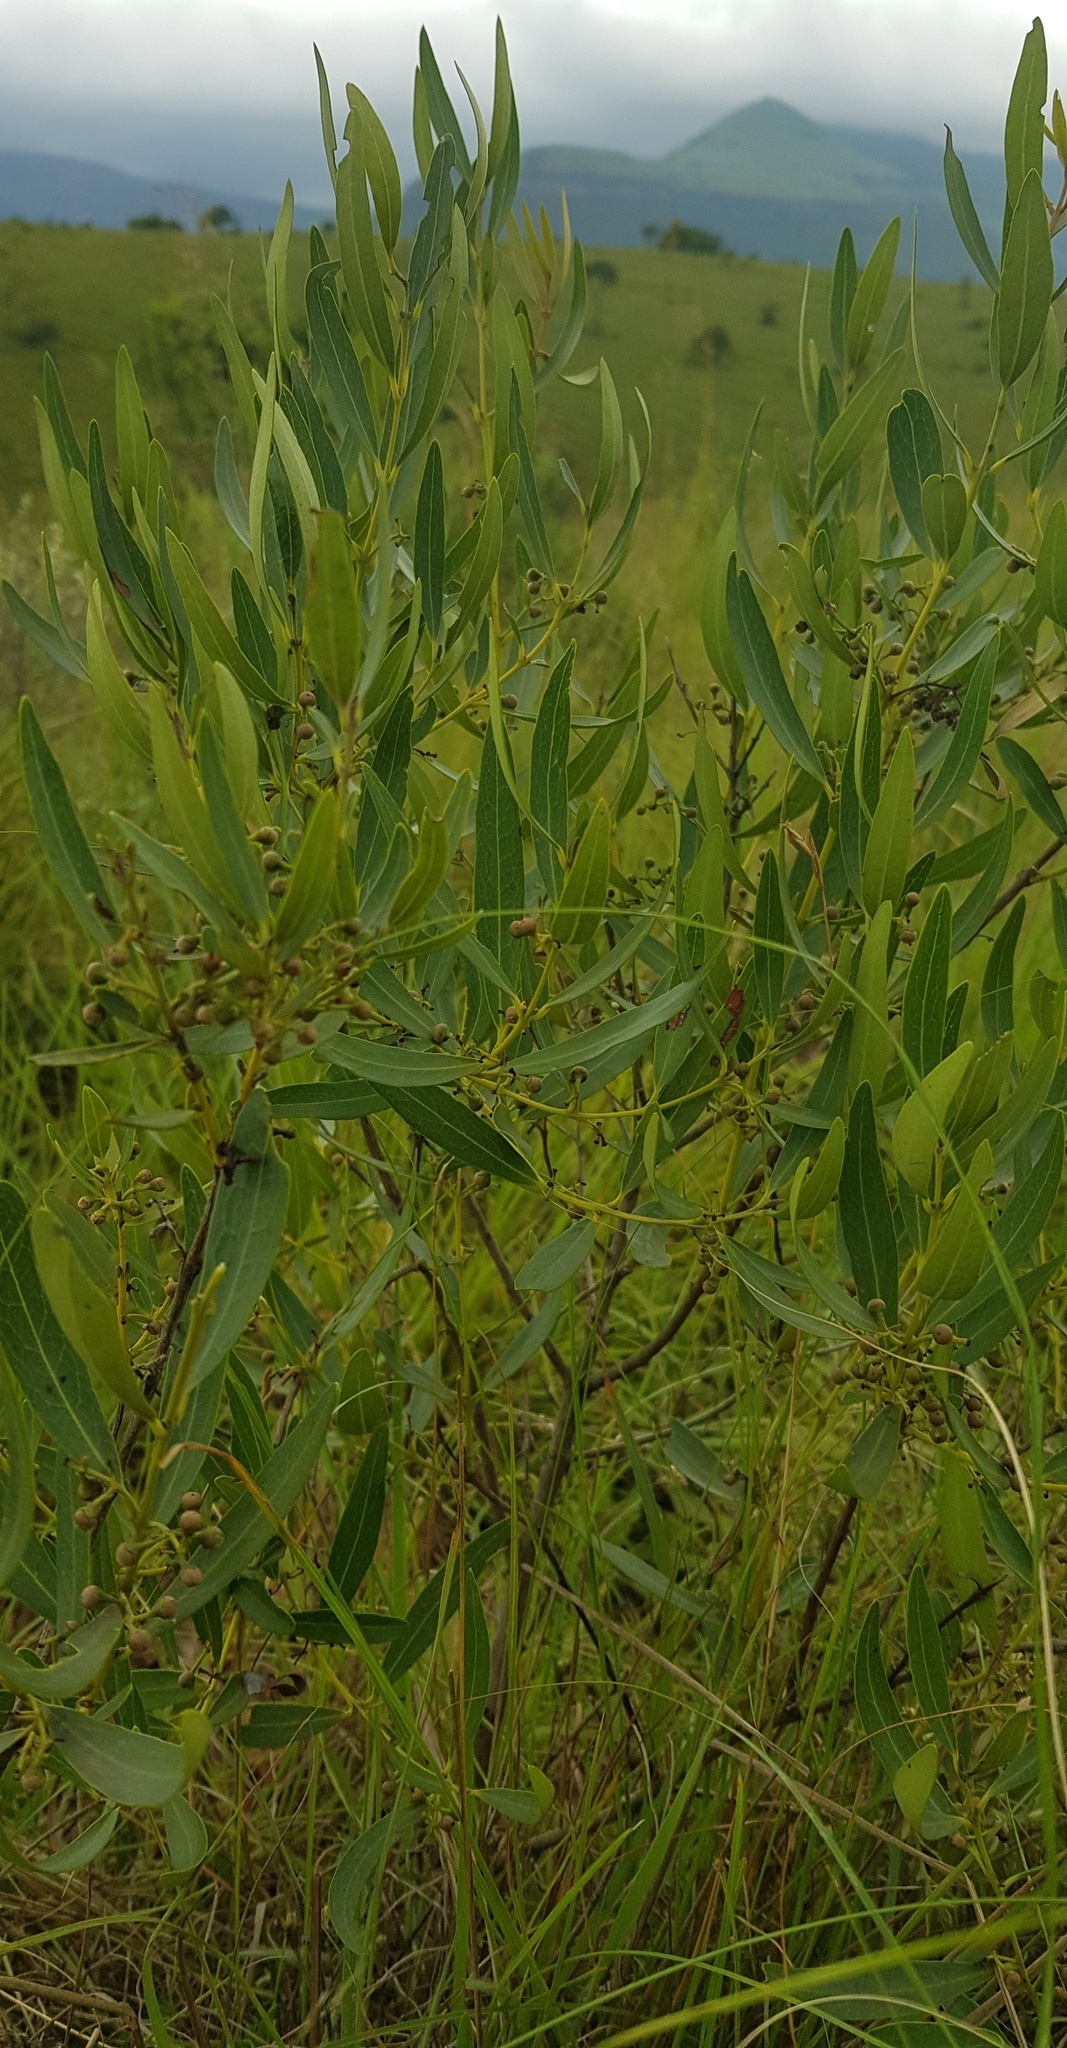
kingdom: Plantae
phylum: Tracheophyta
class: Magnoliopsida
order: Ericales
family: Ebenaceae
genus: Euclea
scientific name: Euclea crispa
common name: Blue guarri
